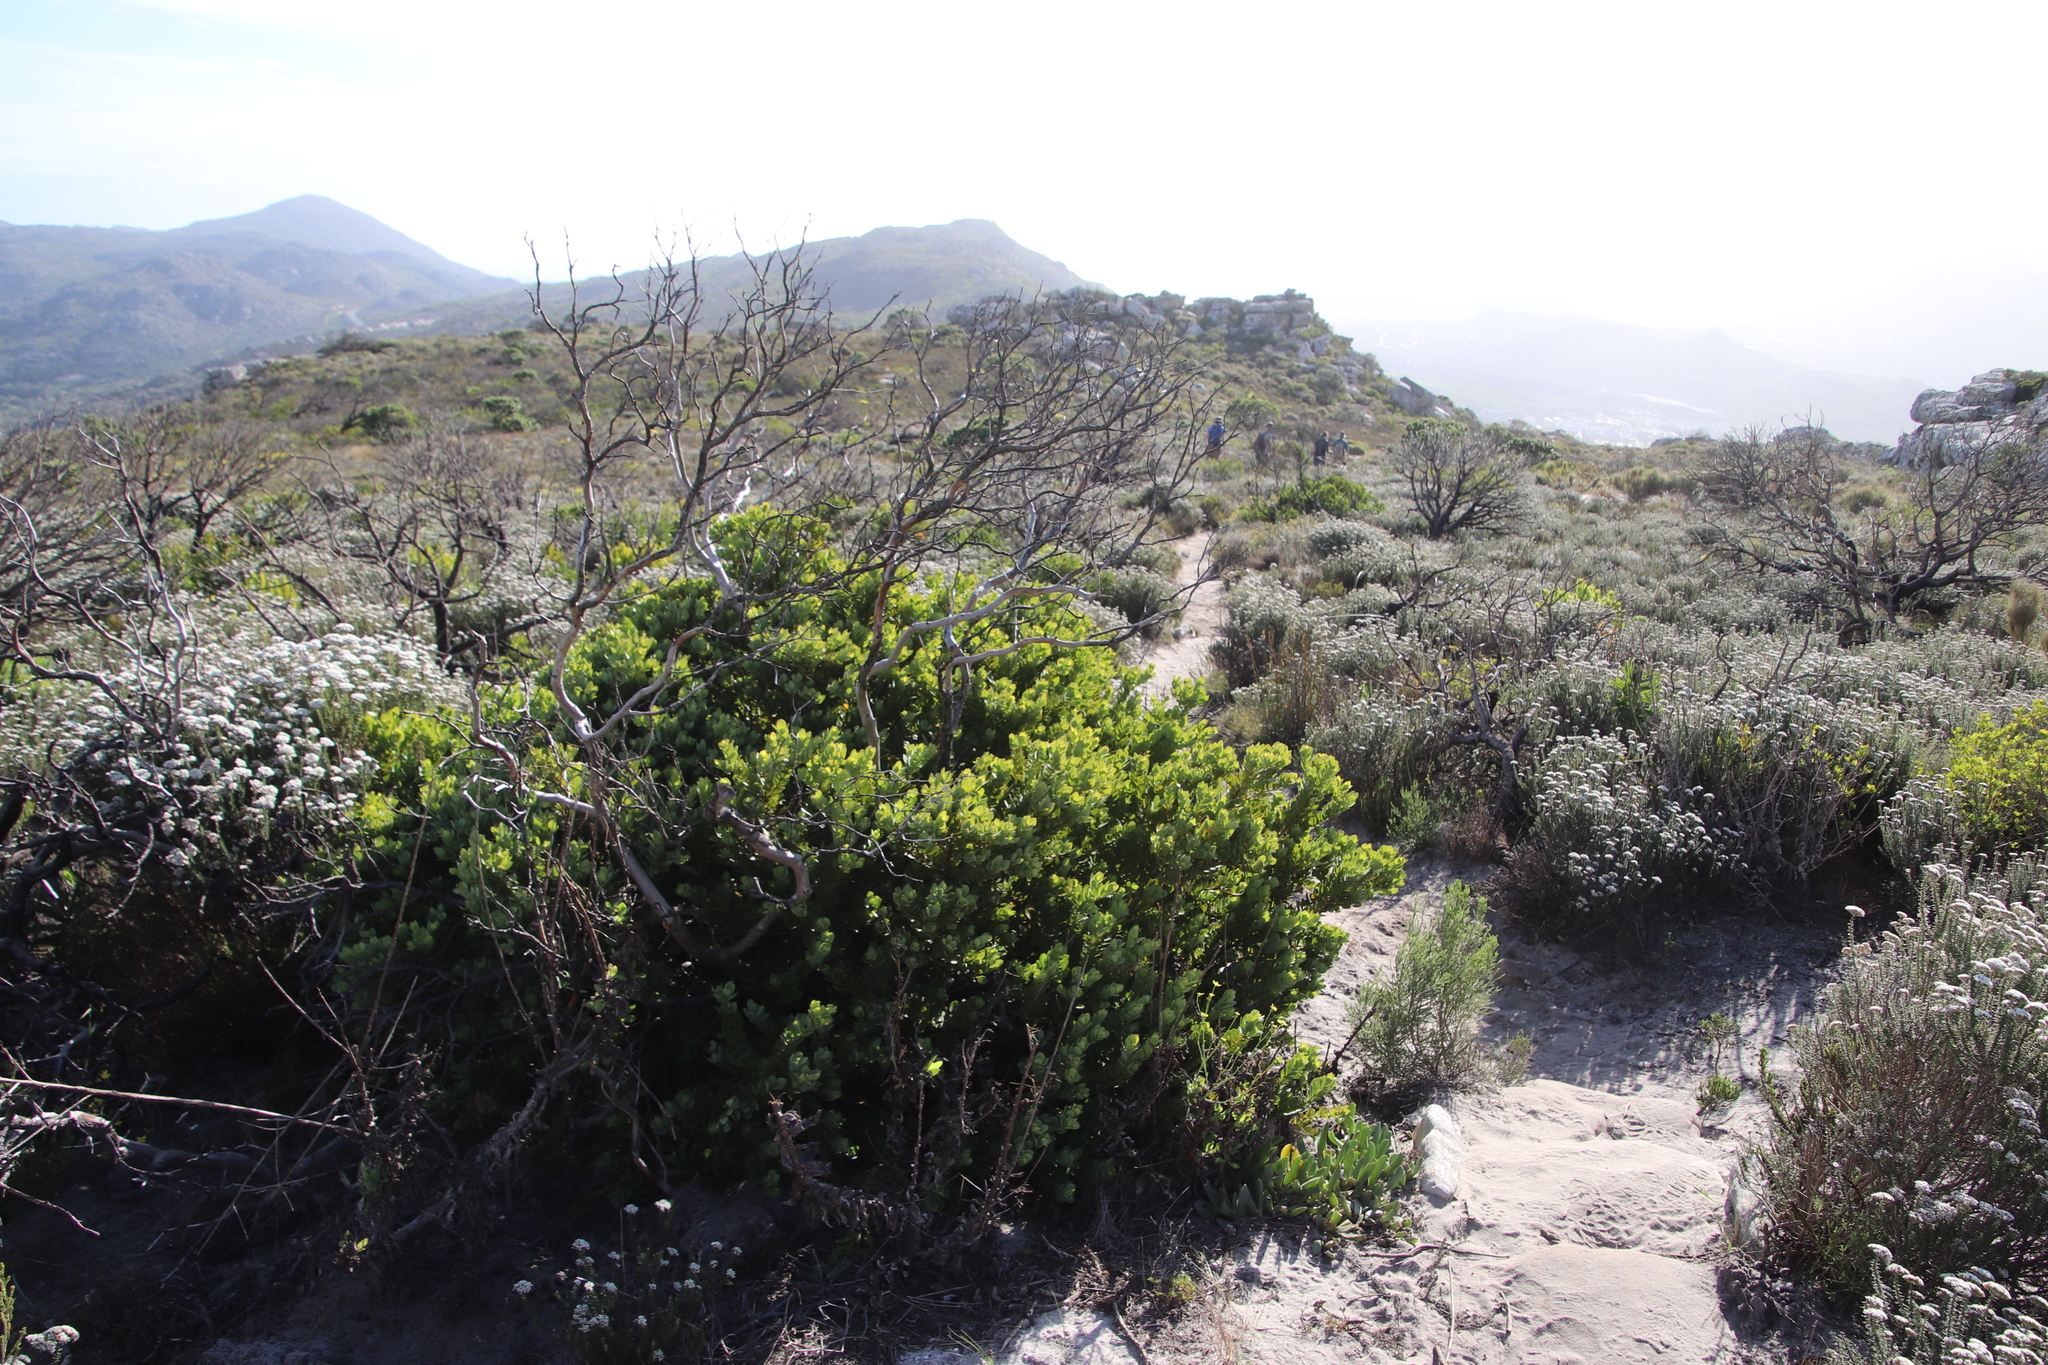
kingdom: Plantae
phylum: Tracheophyta
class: Magnoliopsida
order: Santalales
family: Santalaceae
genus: Osyris
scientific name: Osyris compressa
